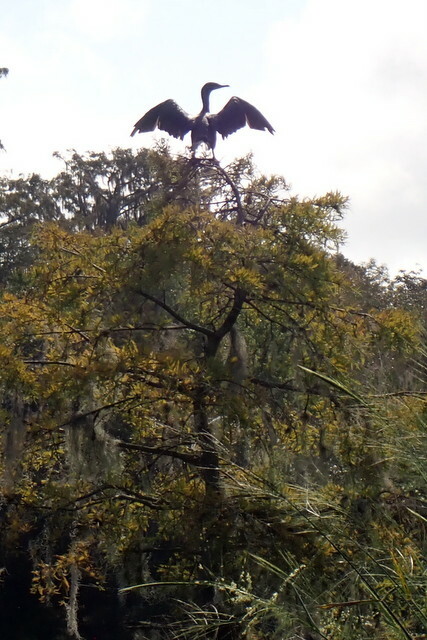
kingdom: Animalia
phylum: Chordata
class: Aves
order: Suliformes
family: Phalacrocoracidae
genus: Phalacrocorax
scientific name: Phalacrocorax auritus
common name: Double-crested cormorant
